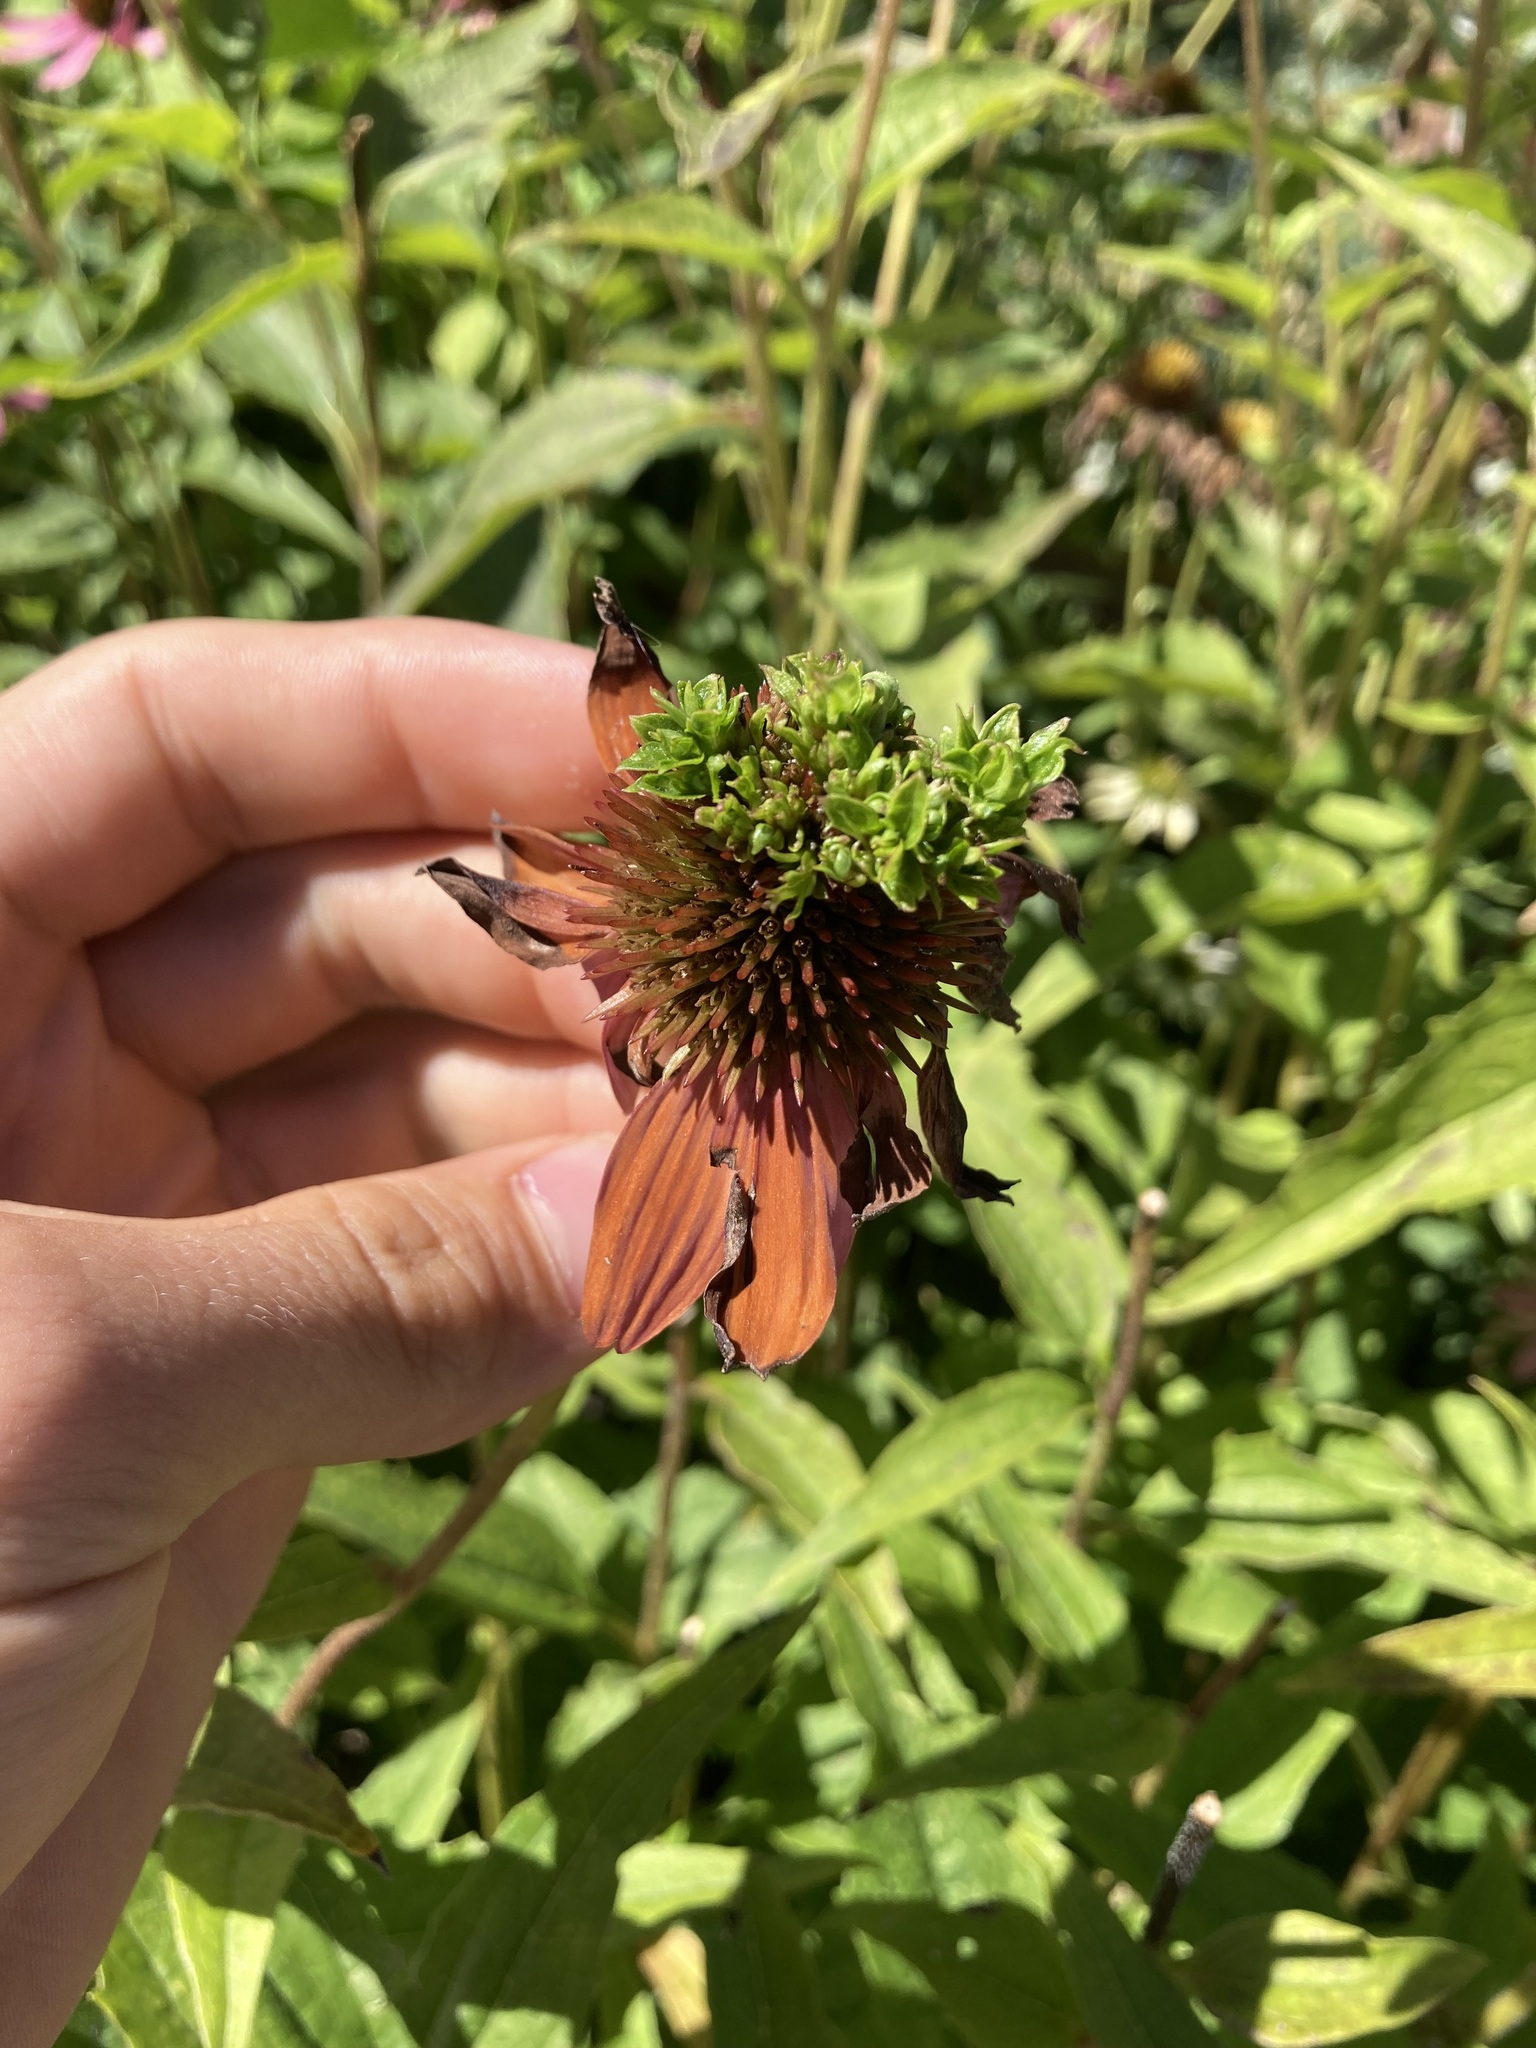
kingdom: Bacteria
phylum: Firmicutes
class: Bacilli
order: Acholeplasmatales
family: Acholeplasmataceae
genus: Phytoplasma
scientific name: Phytoplasma
